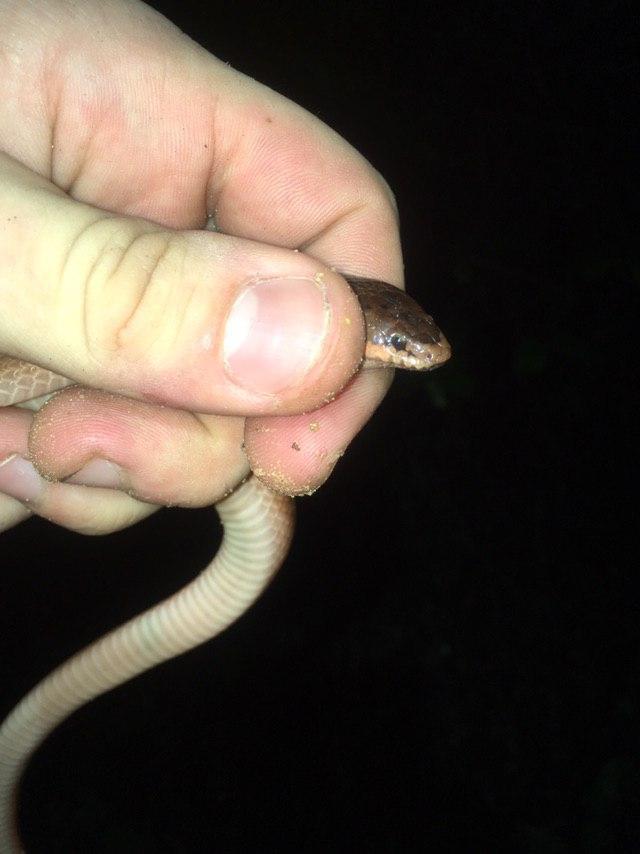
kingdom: Animalia
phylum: Chordata
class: Squamata
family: Pseudoxyrhophiidae
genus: Pseudoxyrhopus
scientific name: Pseudoxyrhopus quinquelineatus
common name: Striped brook snake
